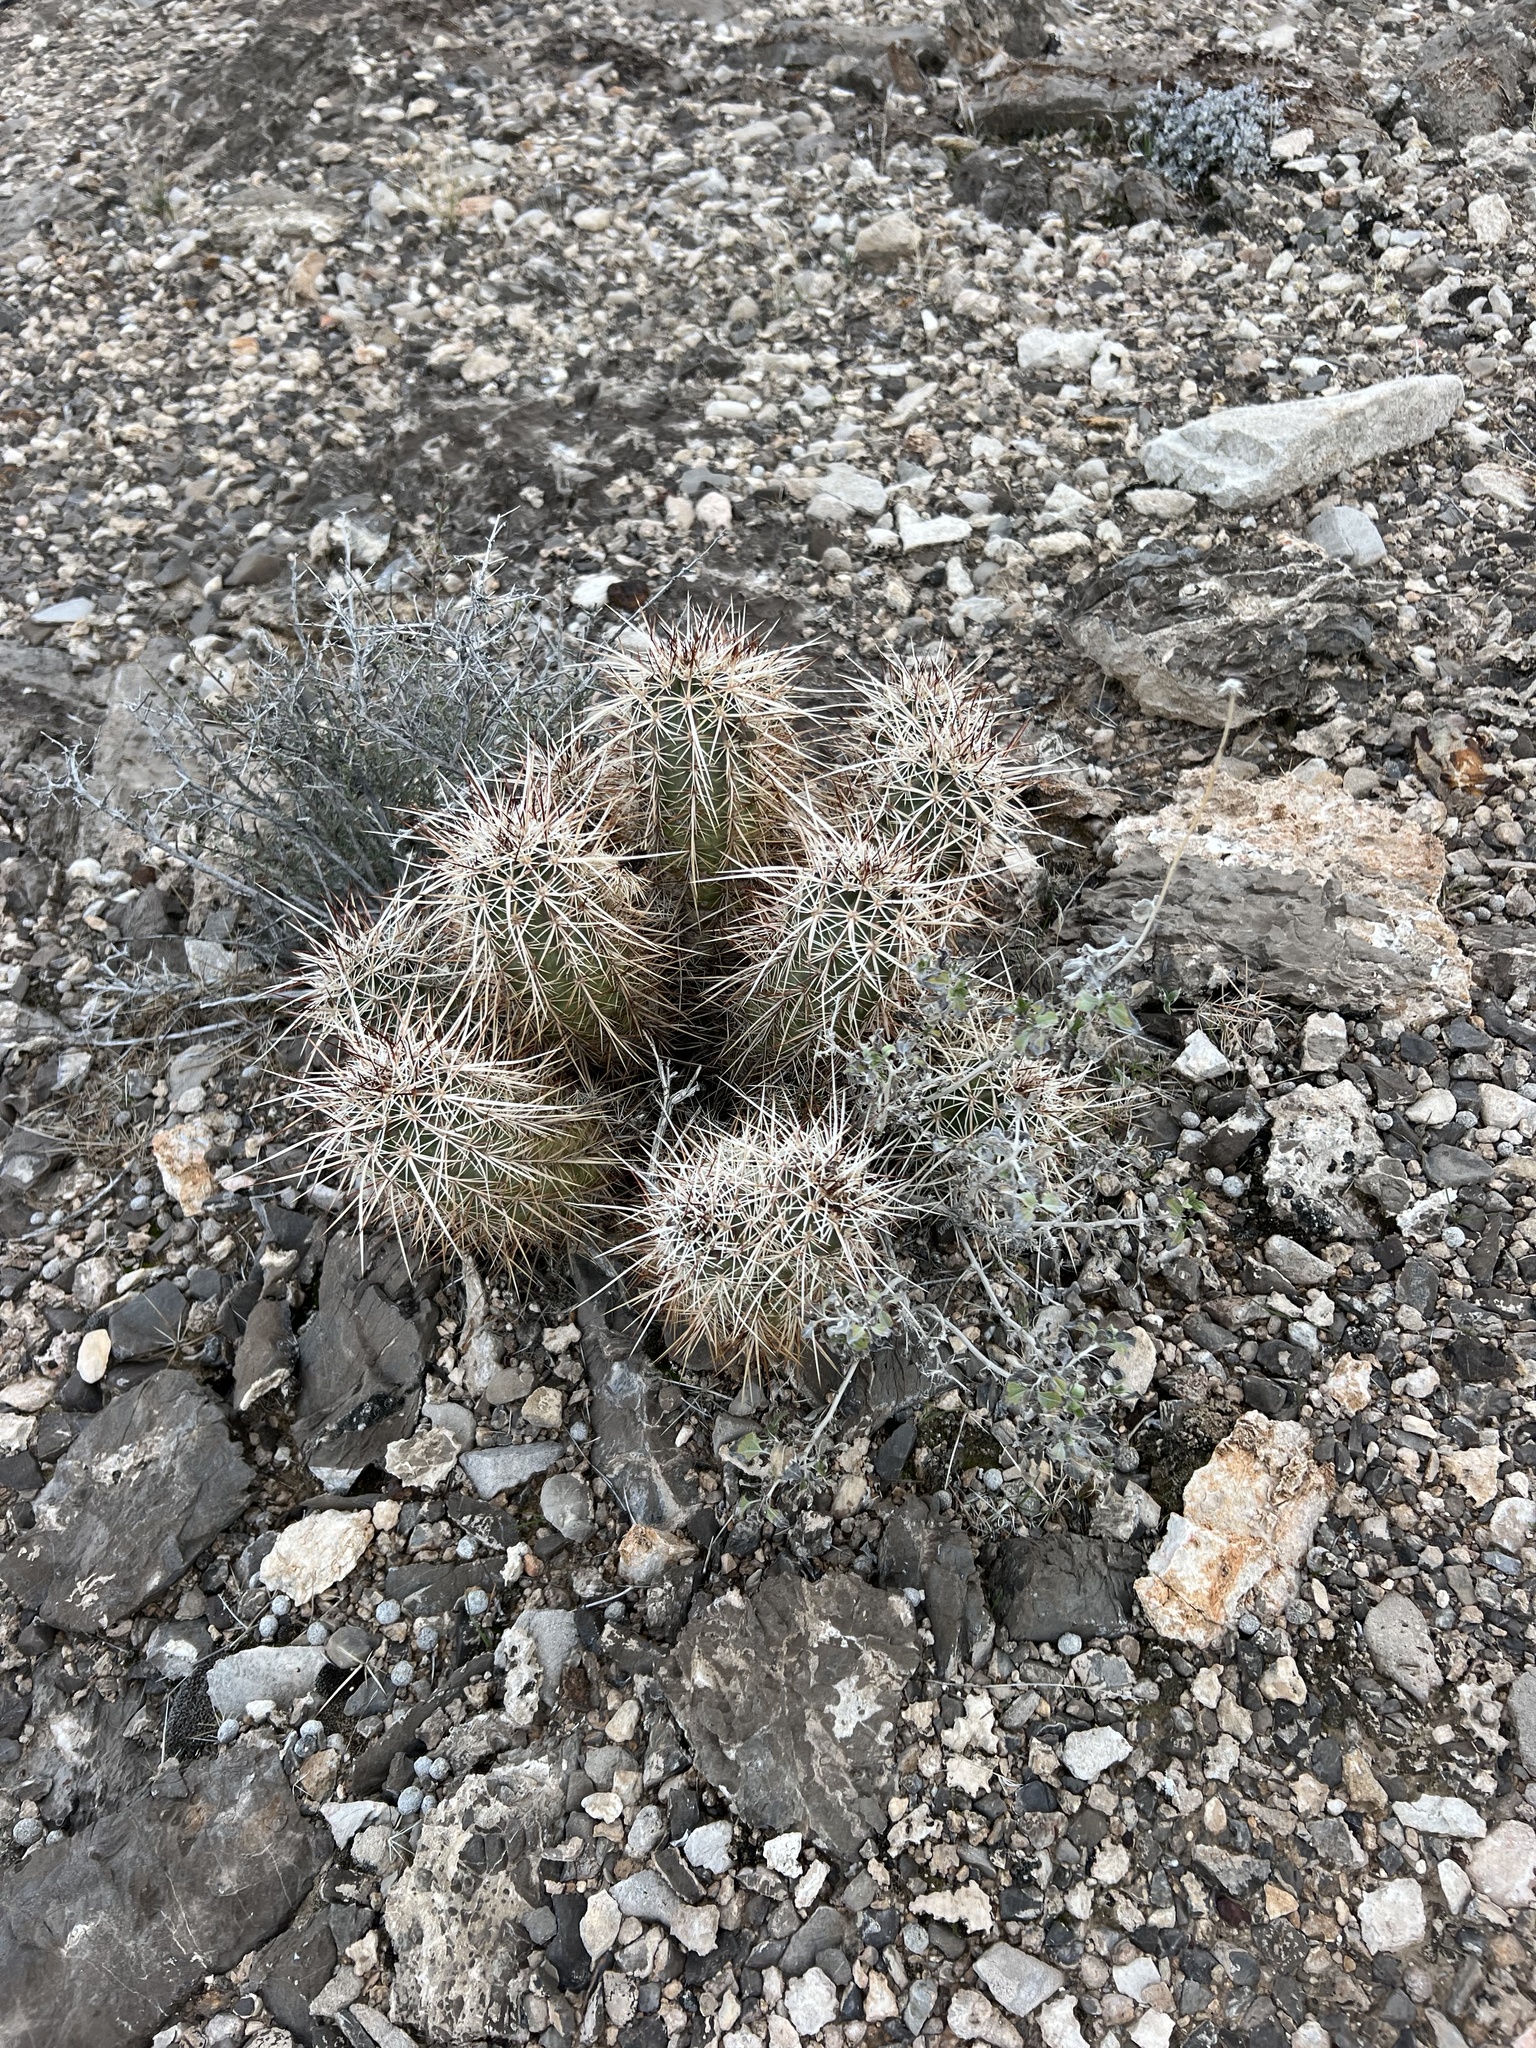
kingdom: Plantae
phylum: Tracheophyta
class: Magnoliopsida
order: Caryophyllales
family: Cactaceae
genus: Echinocereus
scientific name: Echinocereus engelmannii
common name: Engelmann's hedgehog cactus
